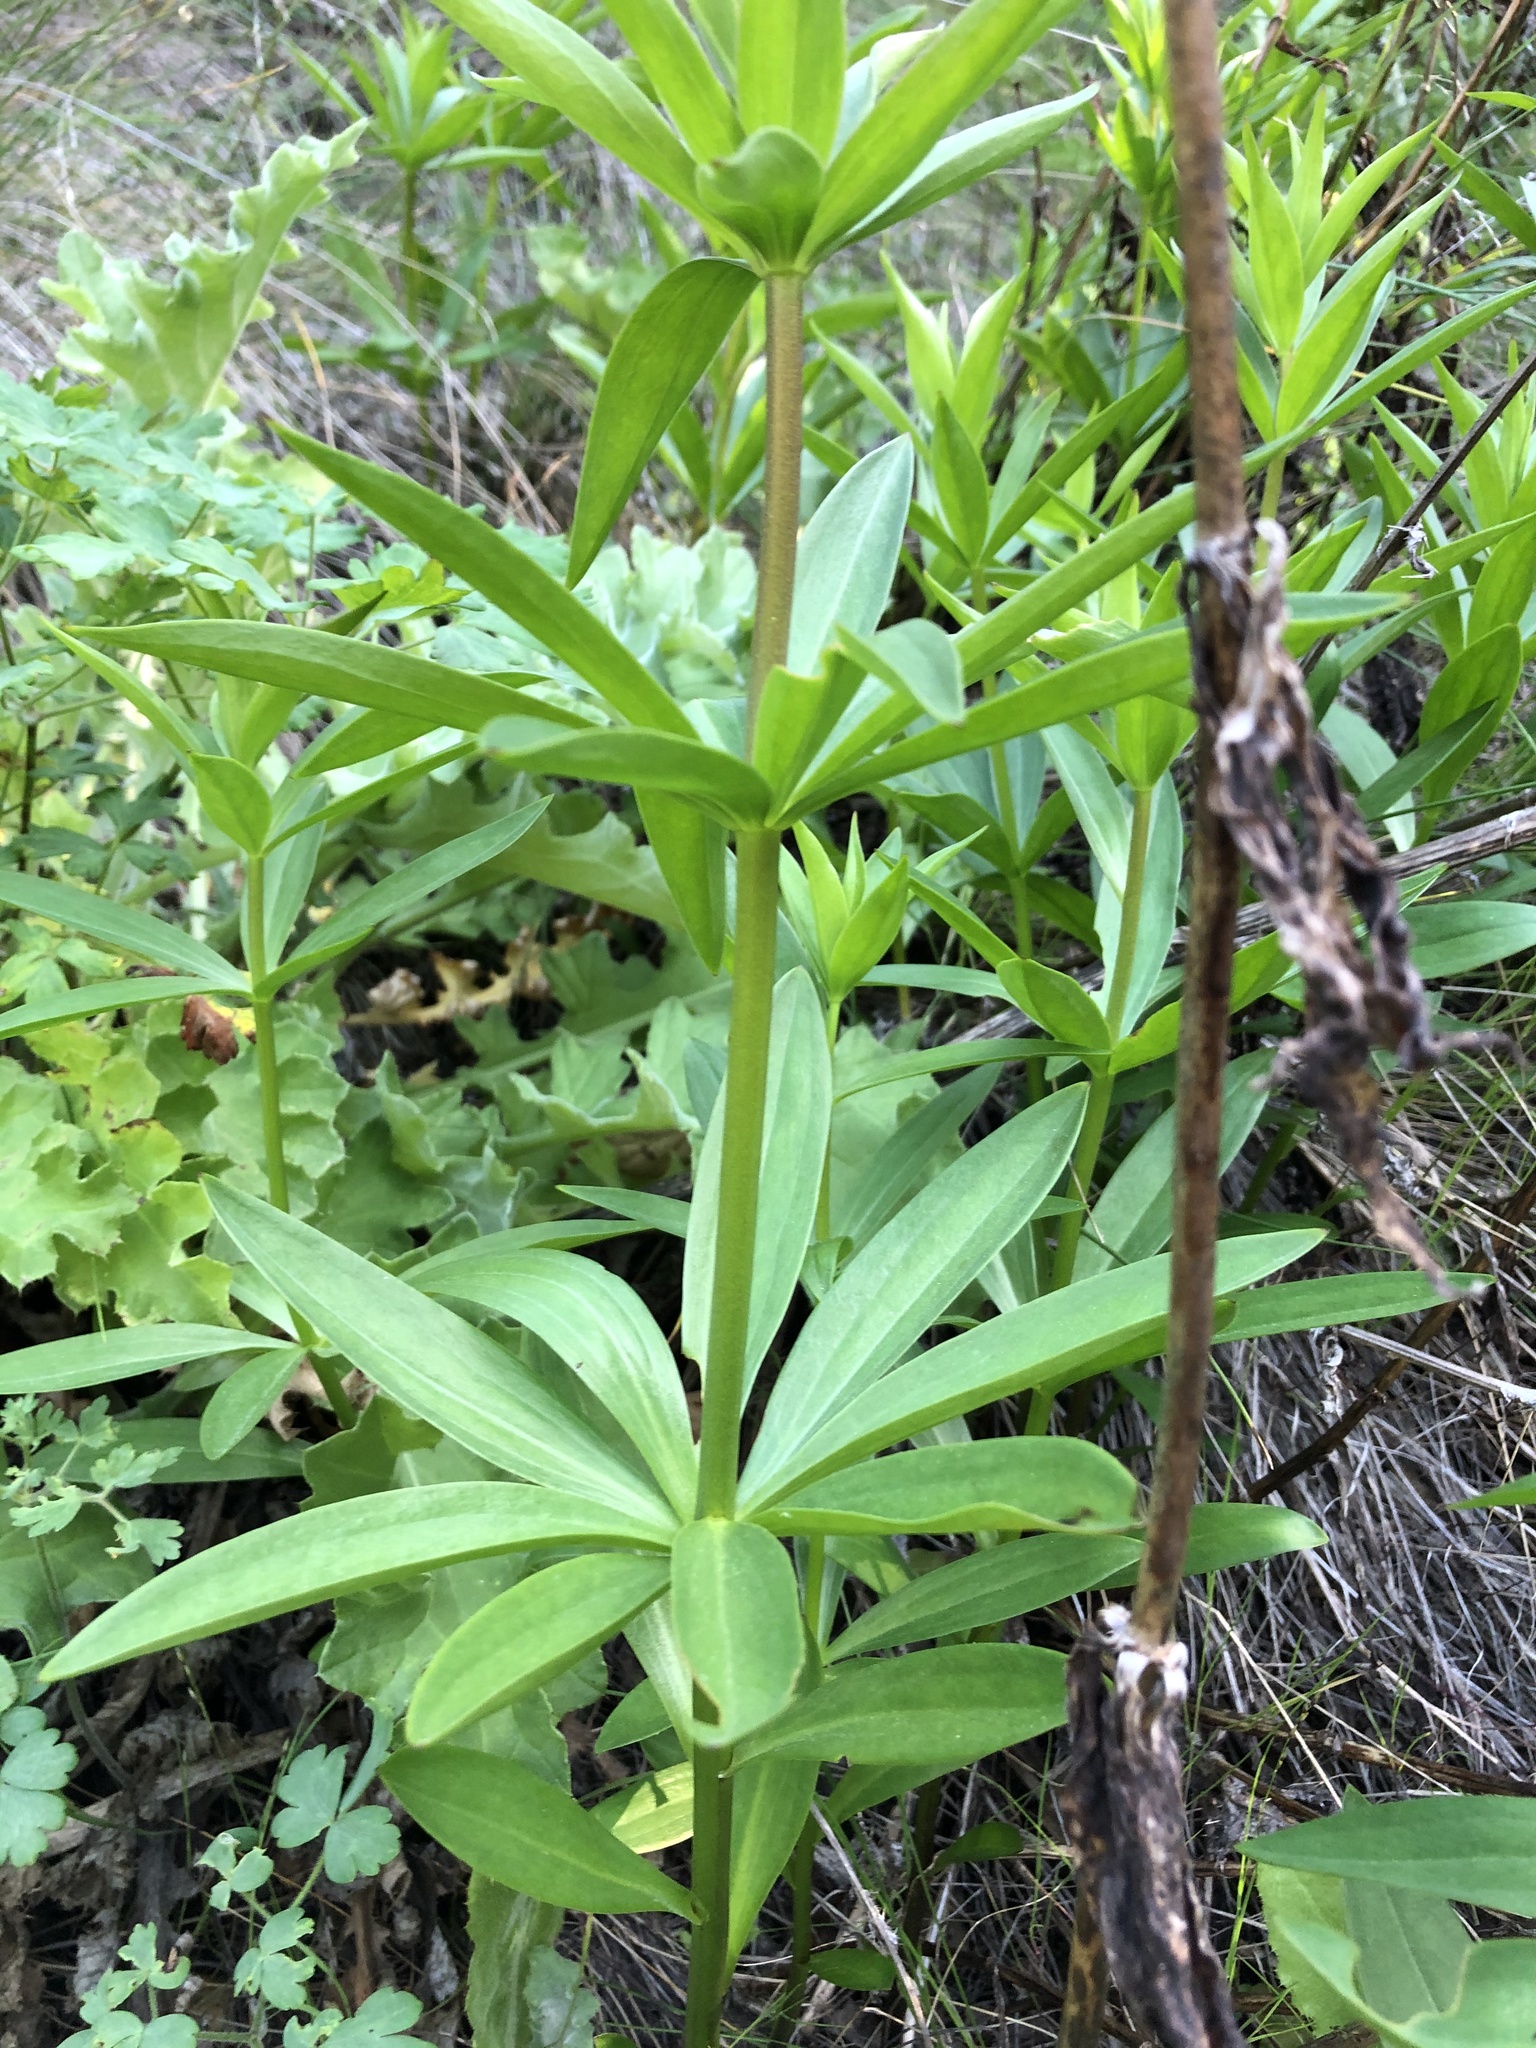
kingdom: Plantae
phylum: Tracheophyta
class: Liliopsida
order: Liliales
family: Liliaceae
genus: Lilium
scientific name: Lilium pardalinum
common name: Panther lily
